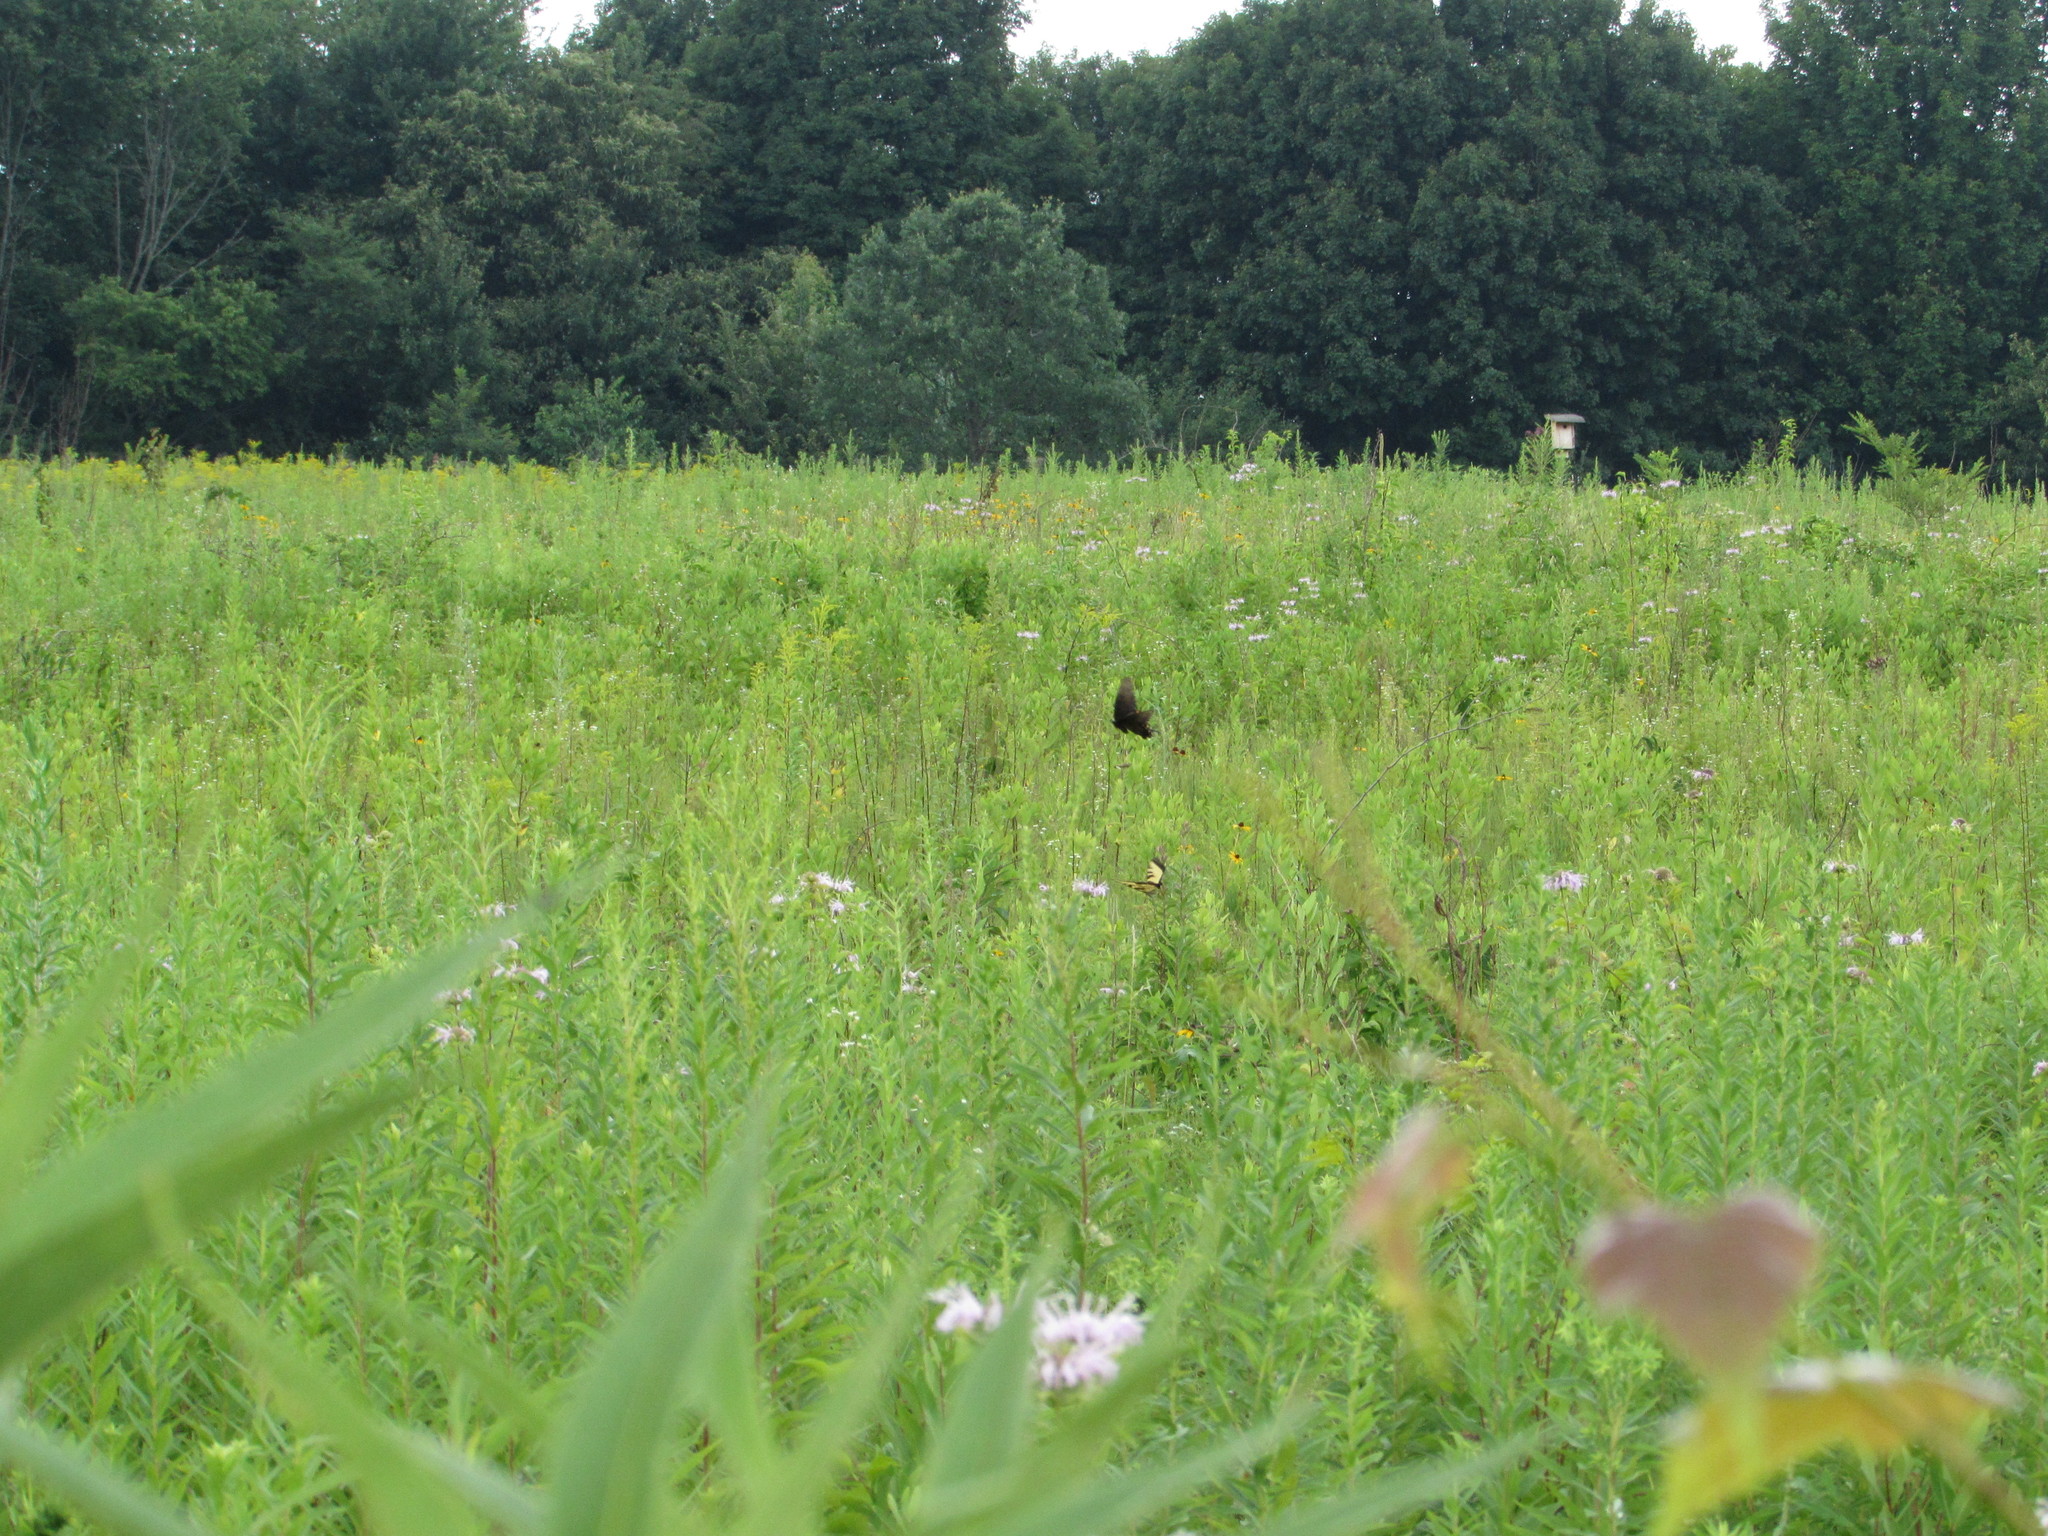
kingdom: Animalia
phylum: Arthropoda
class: Insecta
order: Lepidoptera
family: Papilionidae
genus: Papilio
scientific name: Papilio glaucus
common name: Tiger swallowtail
